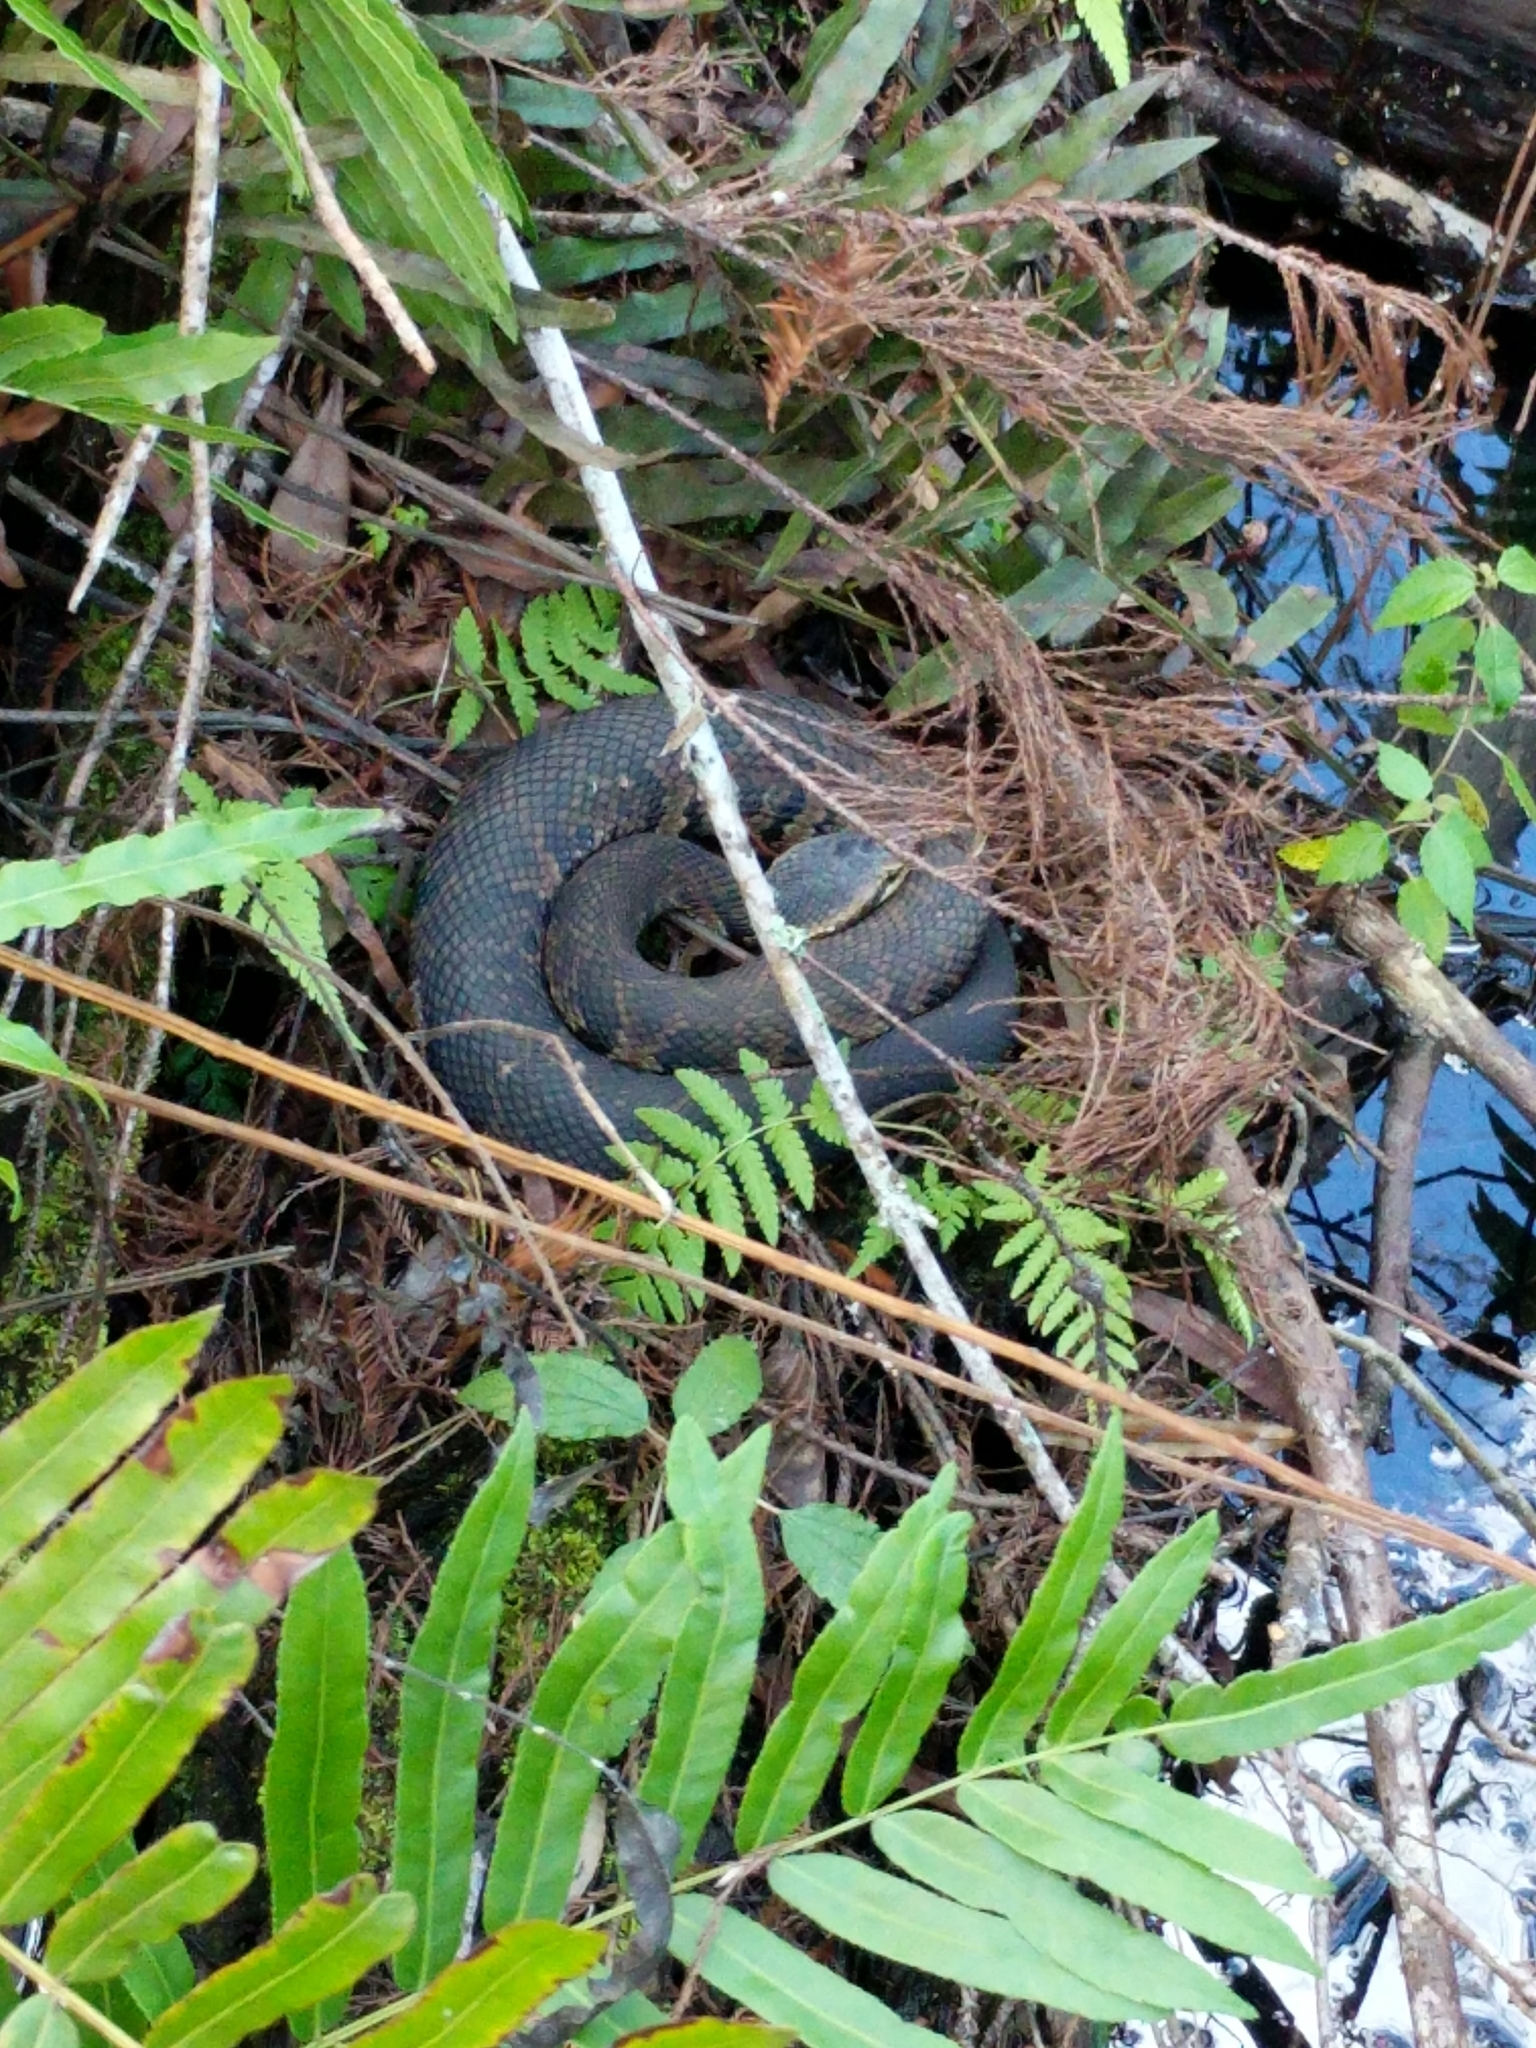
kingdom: Animalia
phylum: Chordata
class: Squamata
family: Viperidae
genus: Agkistrodon
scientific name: Agkistrodon conanti
